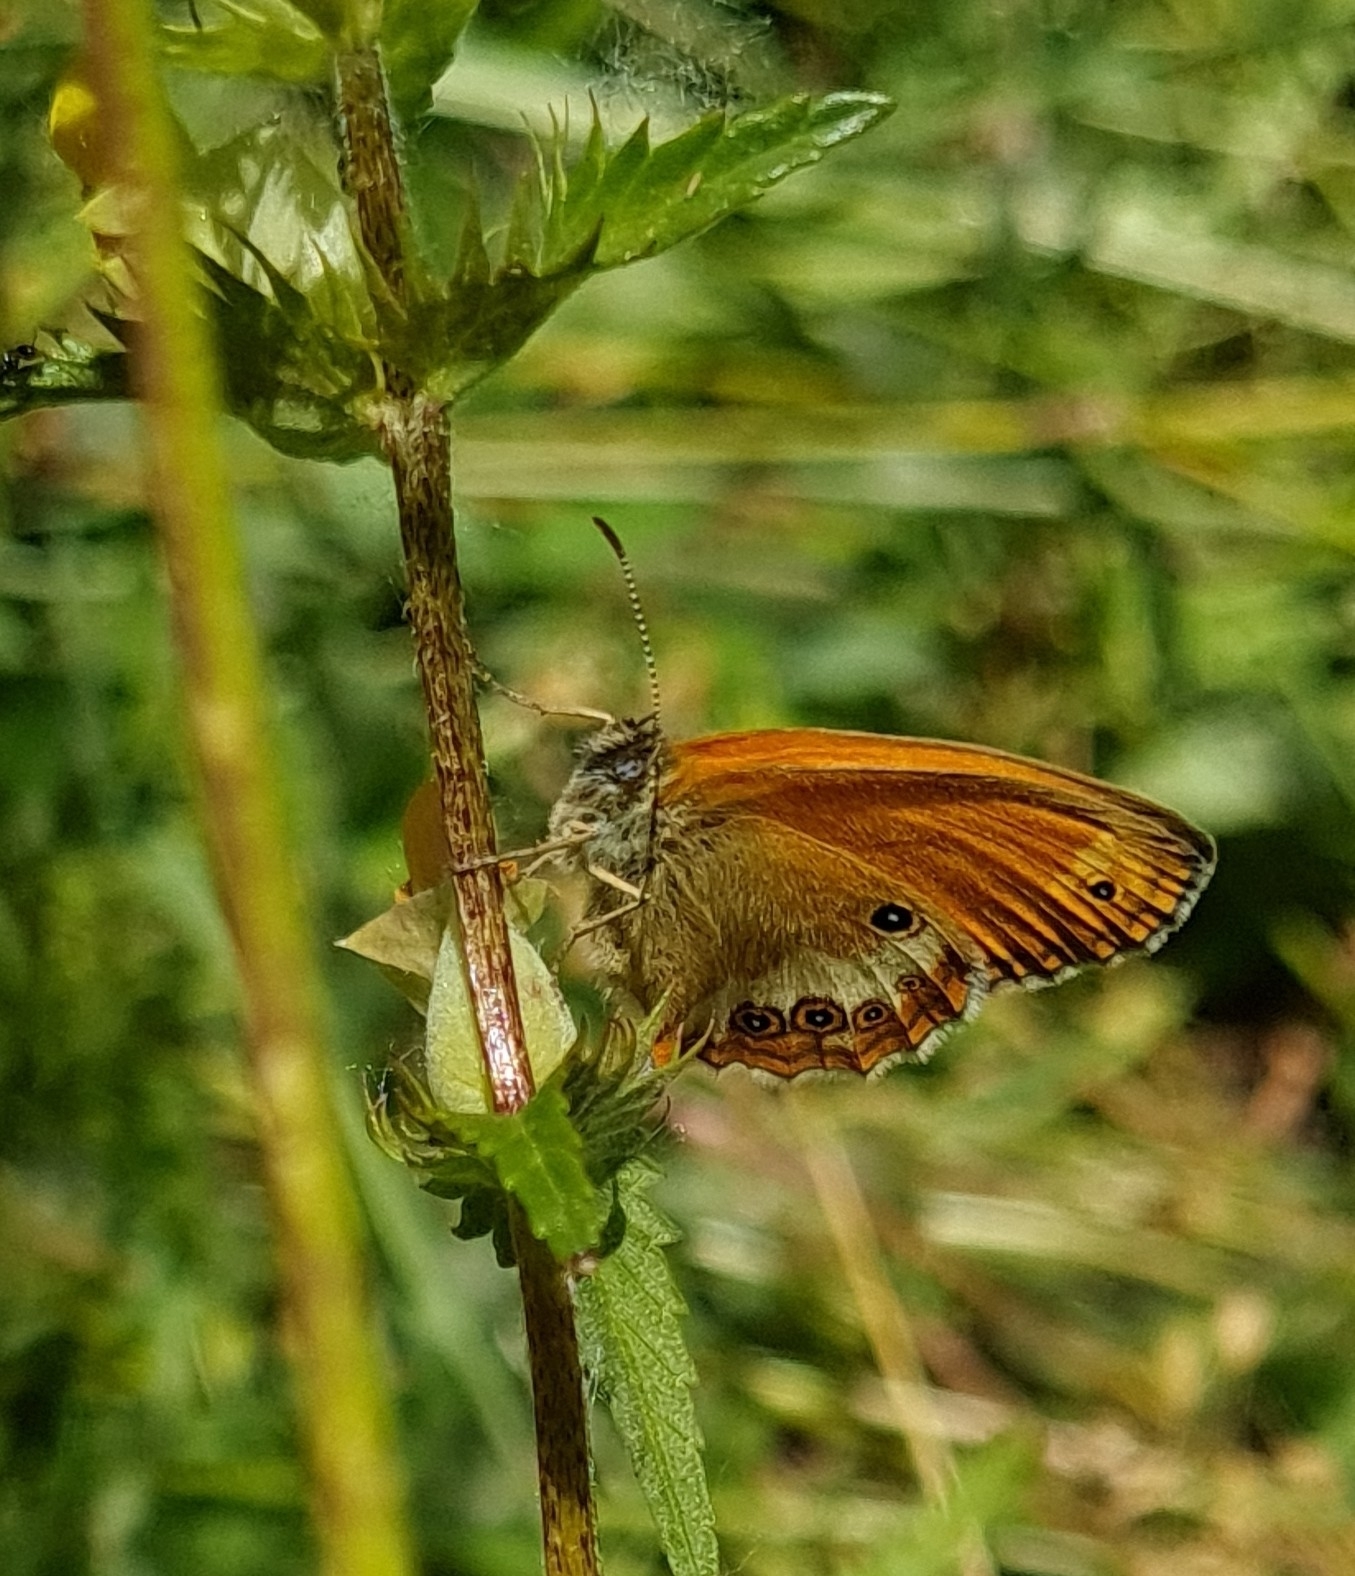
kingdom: Animalia
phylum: Arthropoda
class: Insecta
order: Lepidoptera
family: Nymphalidae
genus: Coenonympha
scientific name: Coenonympha arcania
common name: Pearly heath
